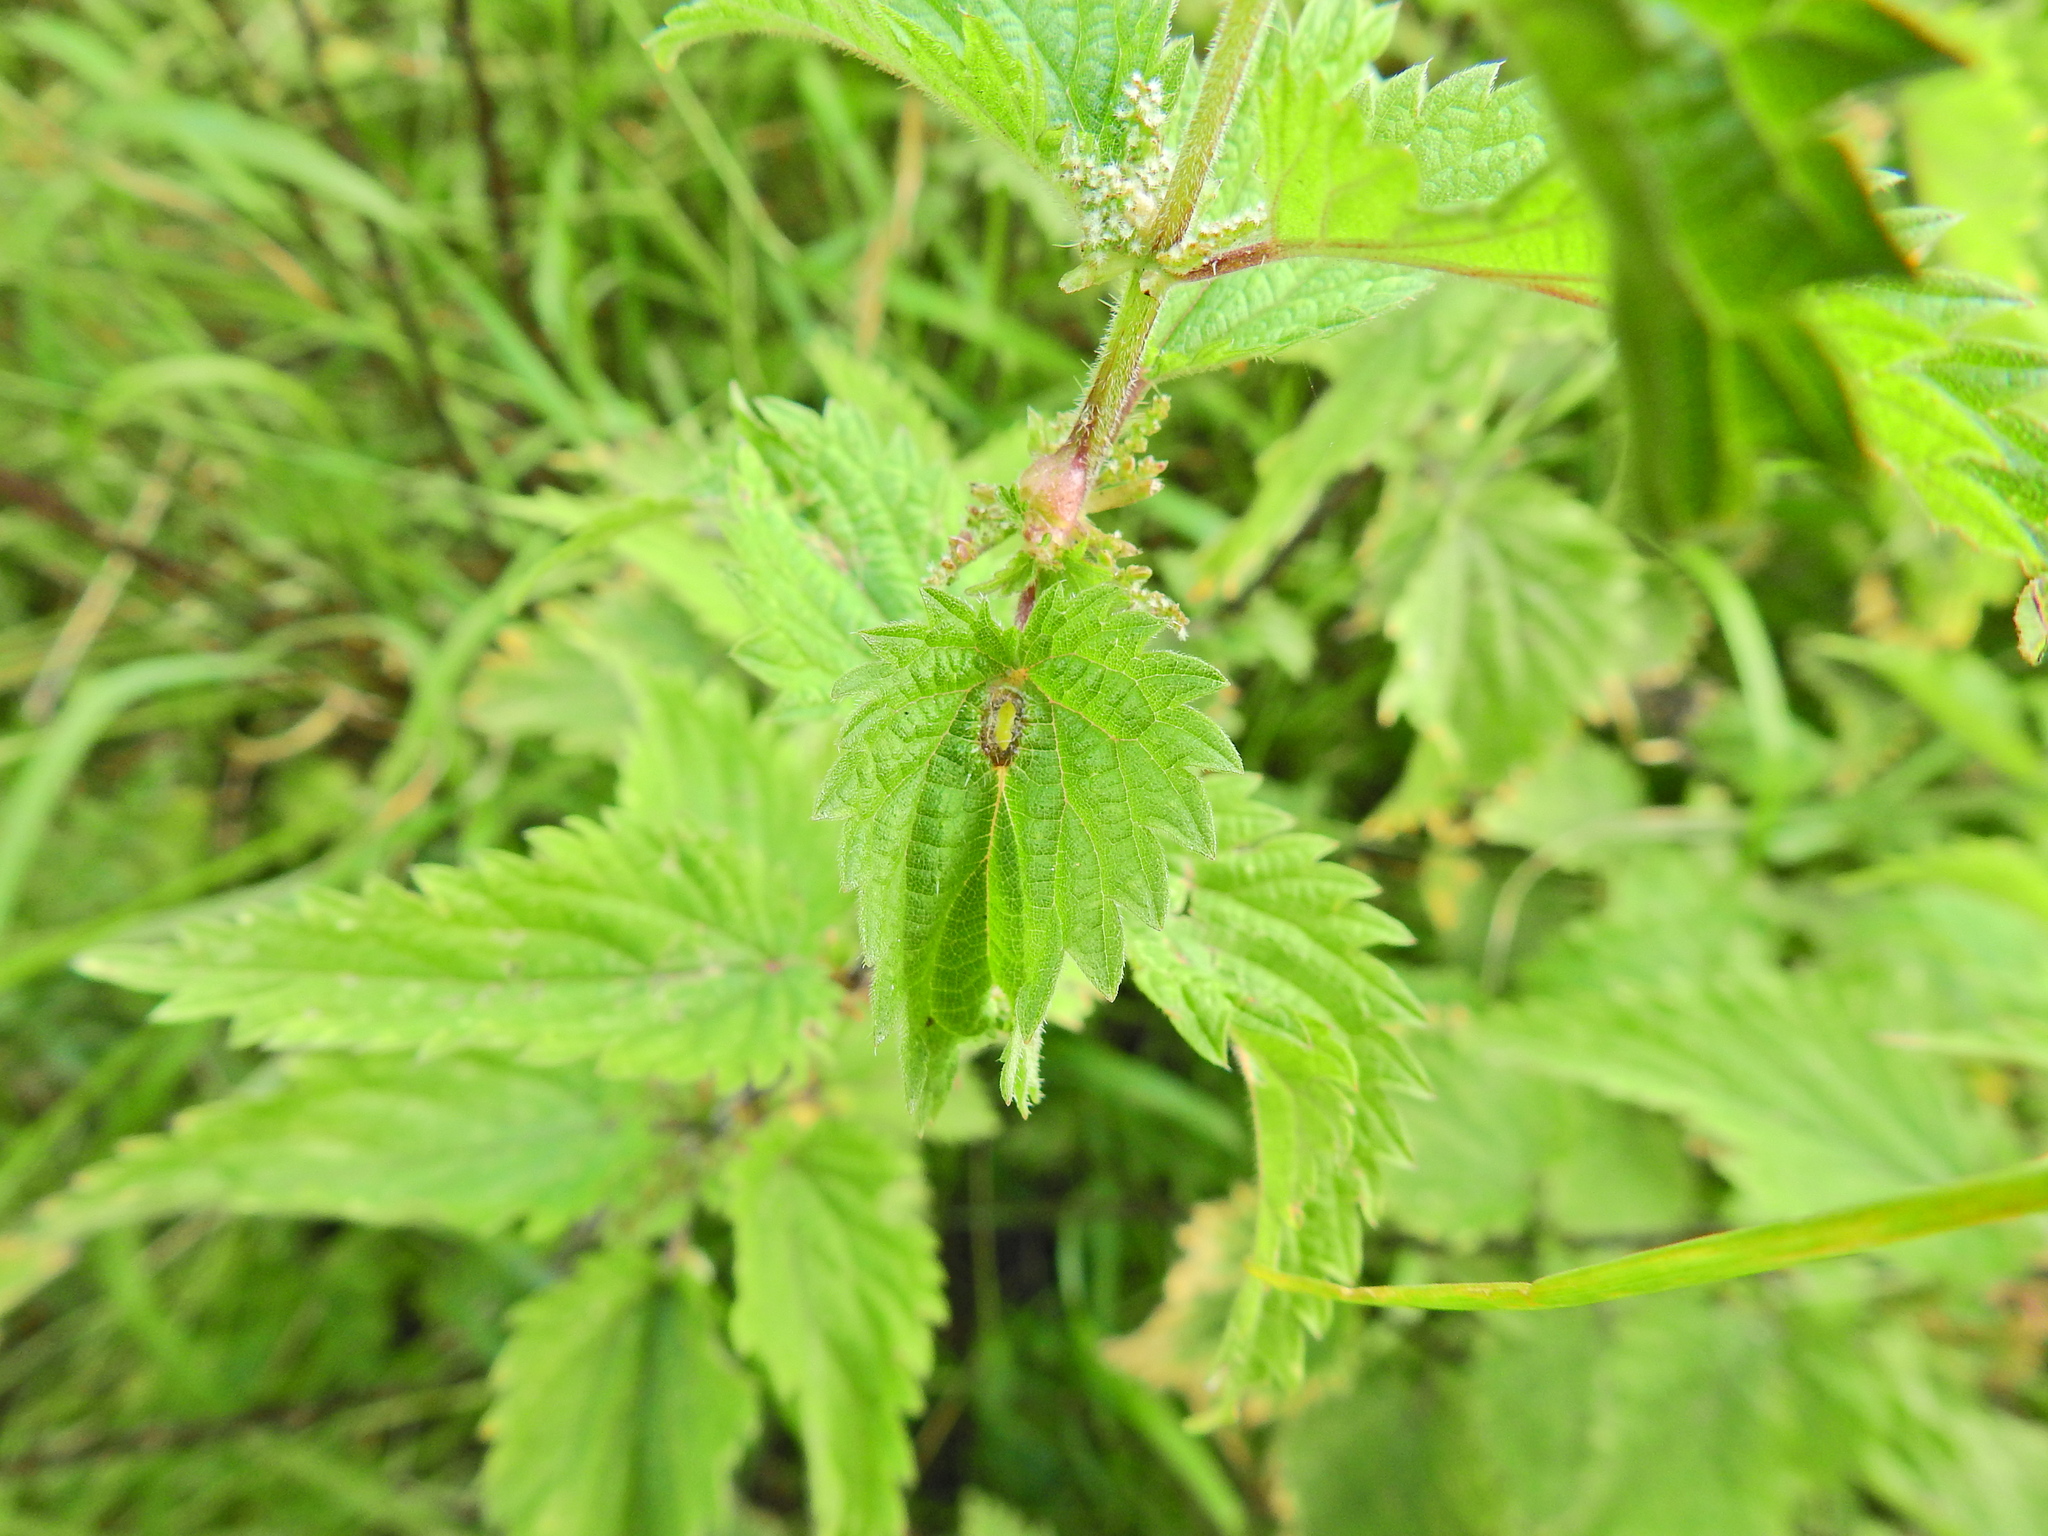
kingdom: Animalia
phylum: Arthropoda
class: Insecta
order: Diptera
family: Cecidomyiidae
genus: Dasineura
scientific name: Dasineura urticae
